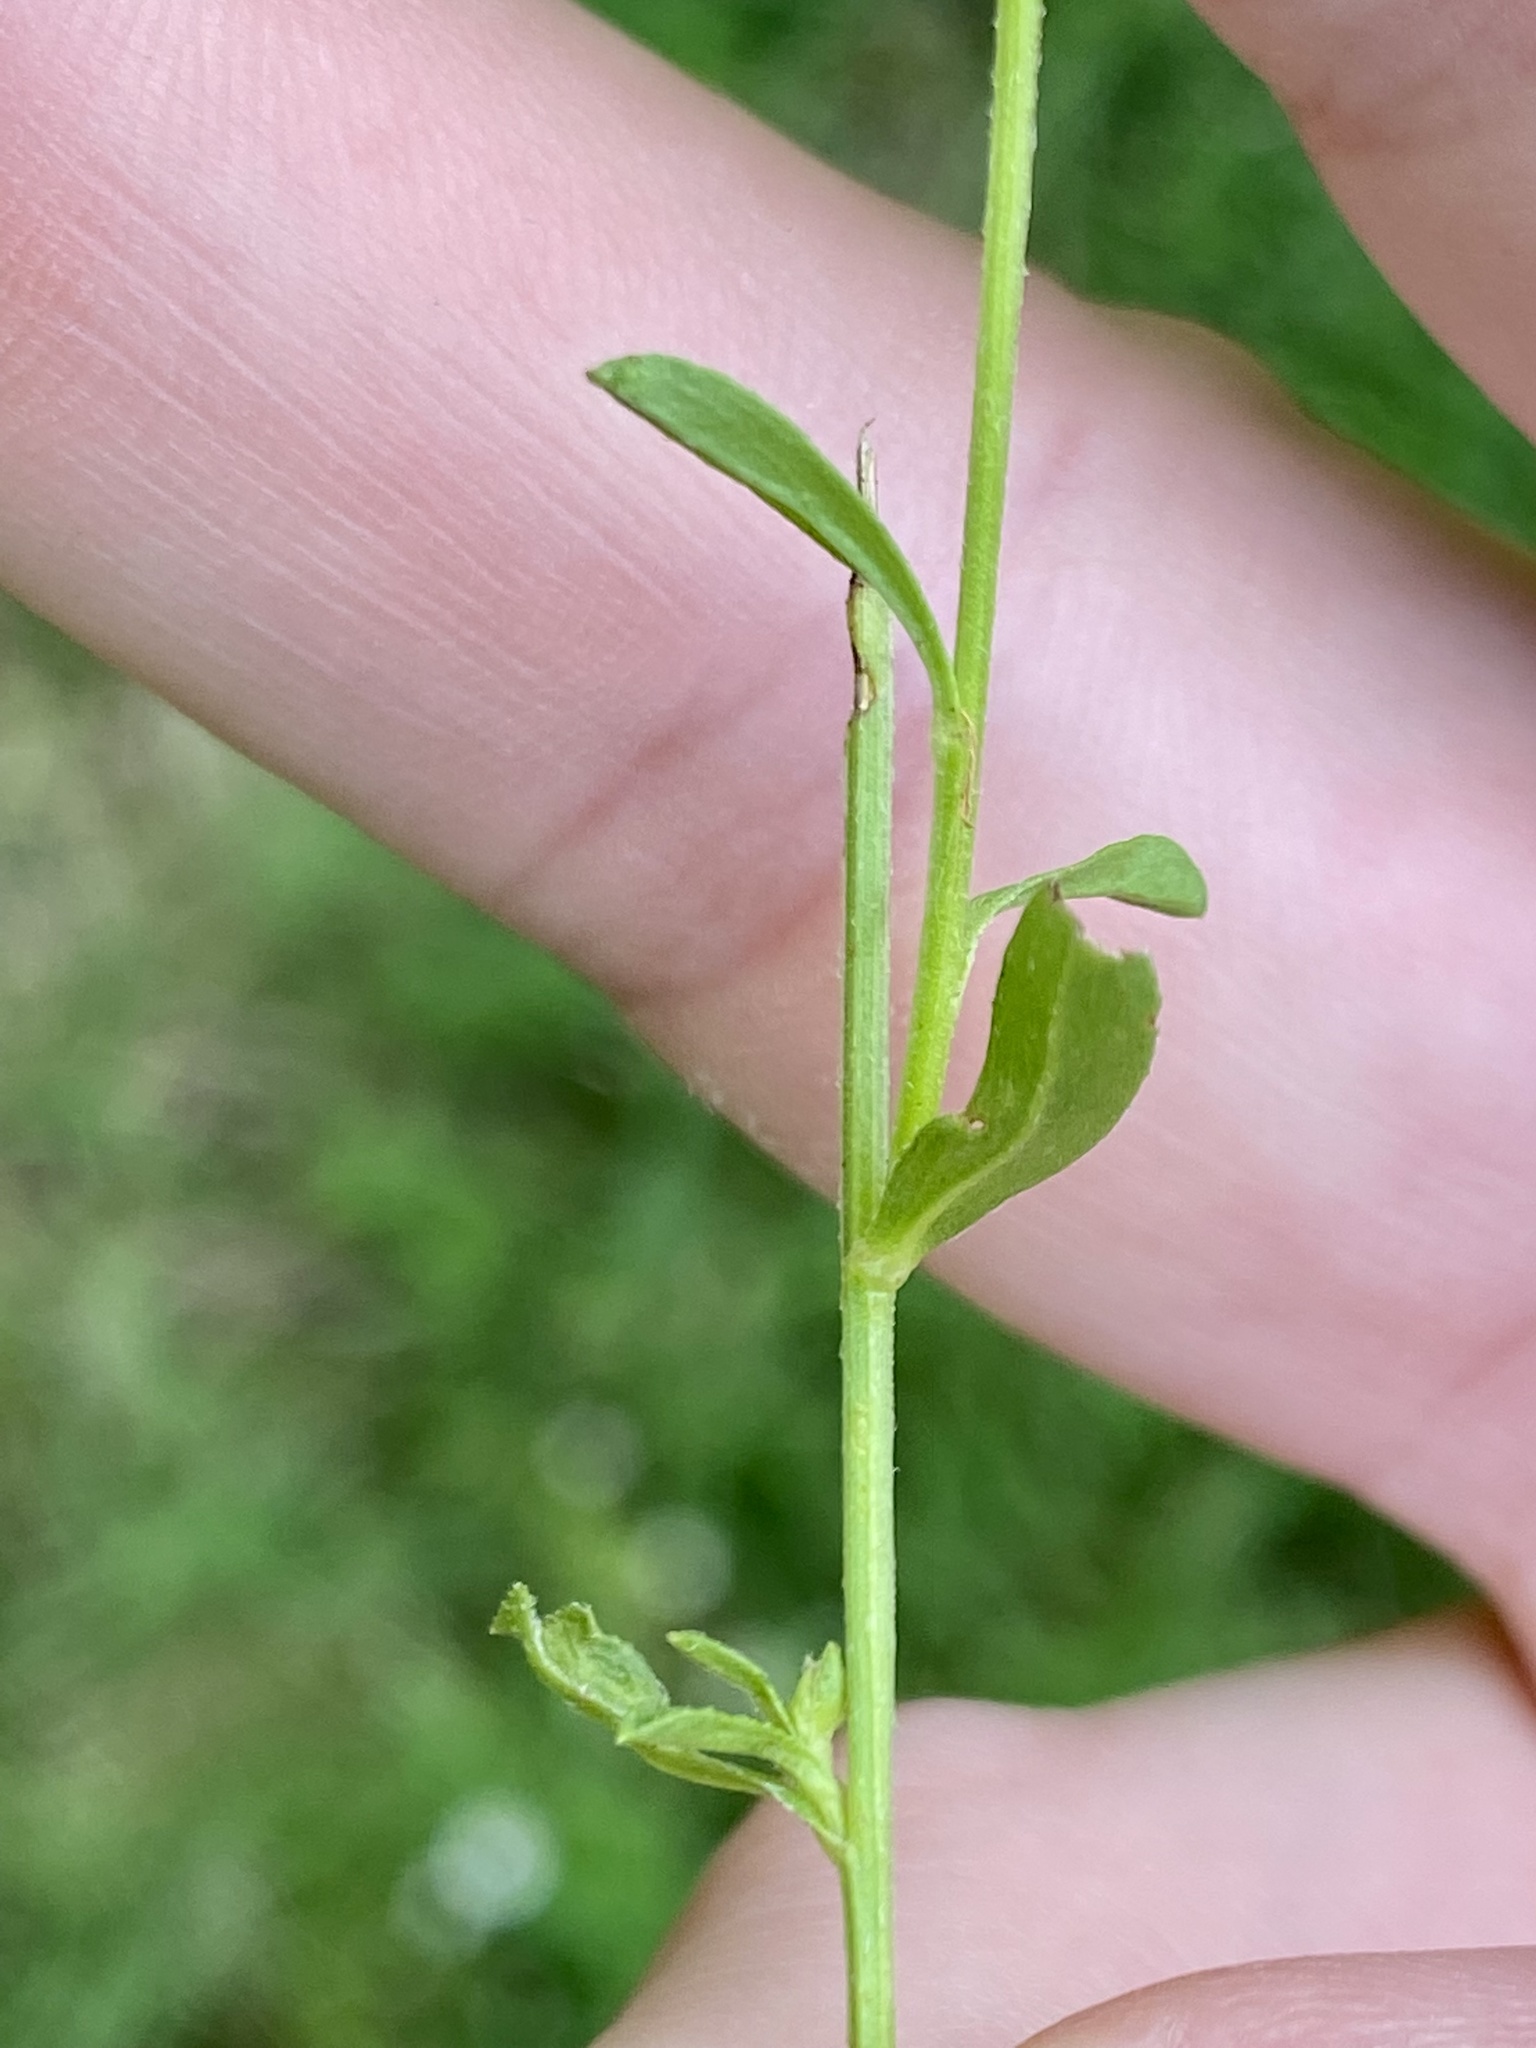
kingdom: Plantae
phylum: Tracheophyta
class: Magnoliopsida
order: Asterales
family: Asteraceae
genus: Erigeron
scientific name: Erigeron strigosus
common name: Common eastern fleabane
